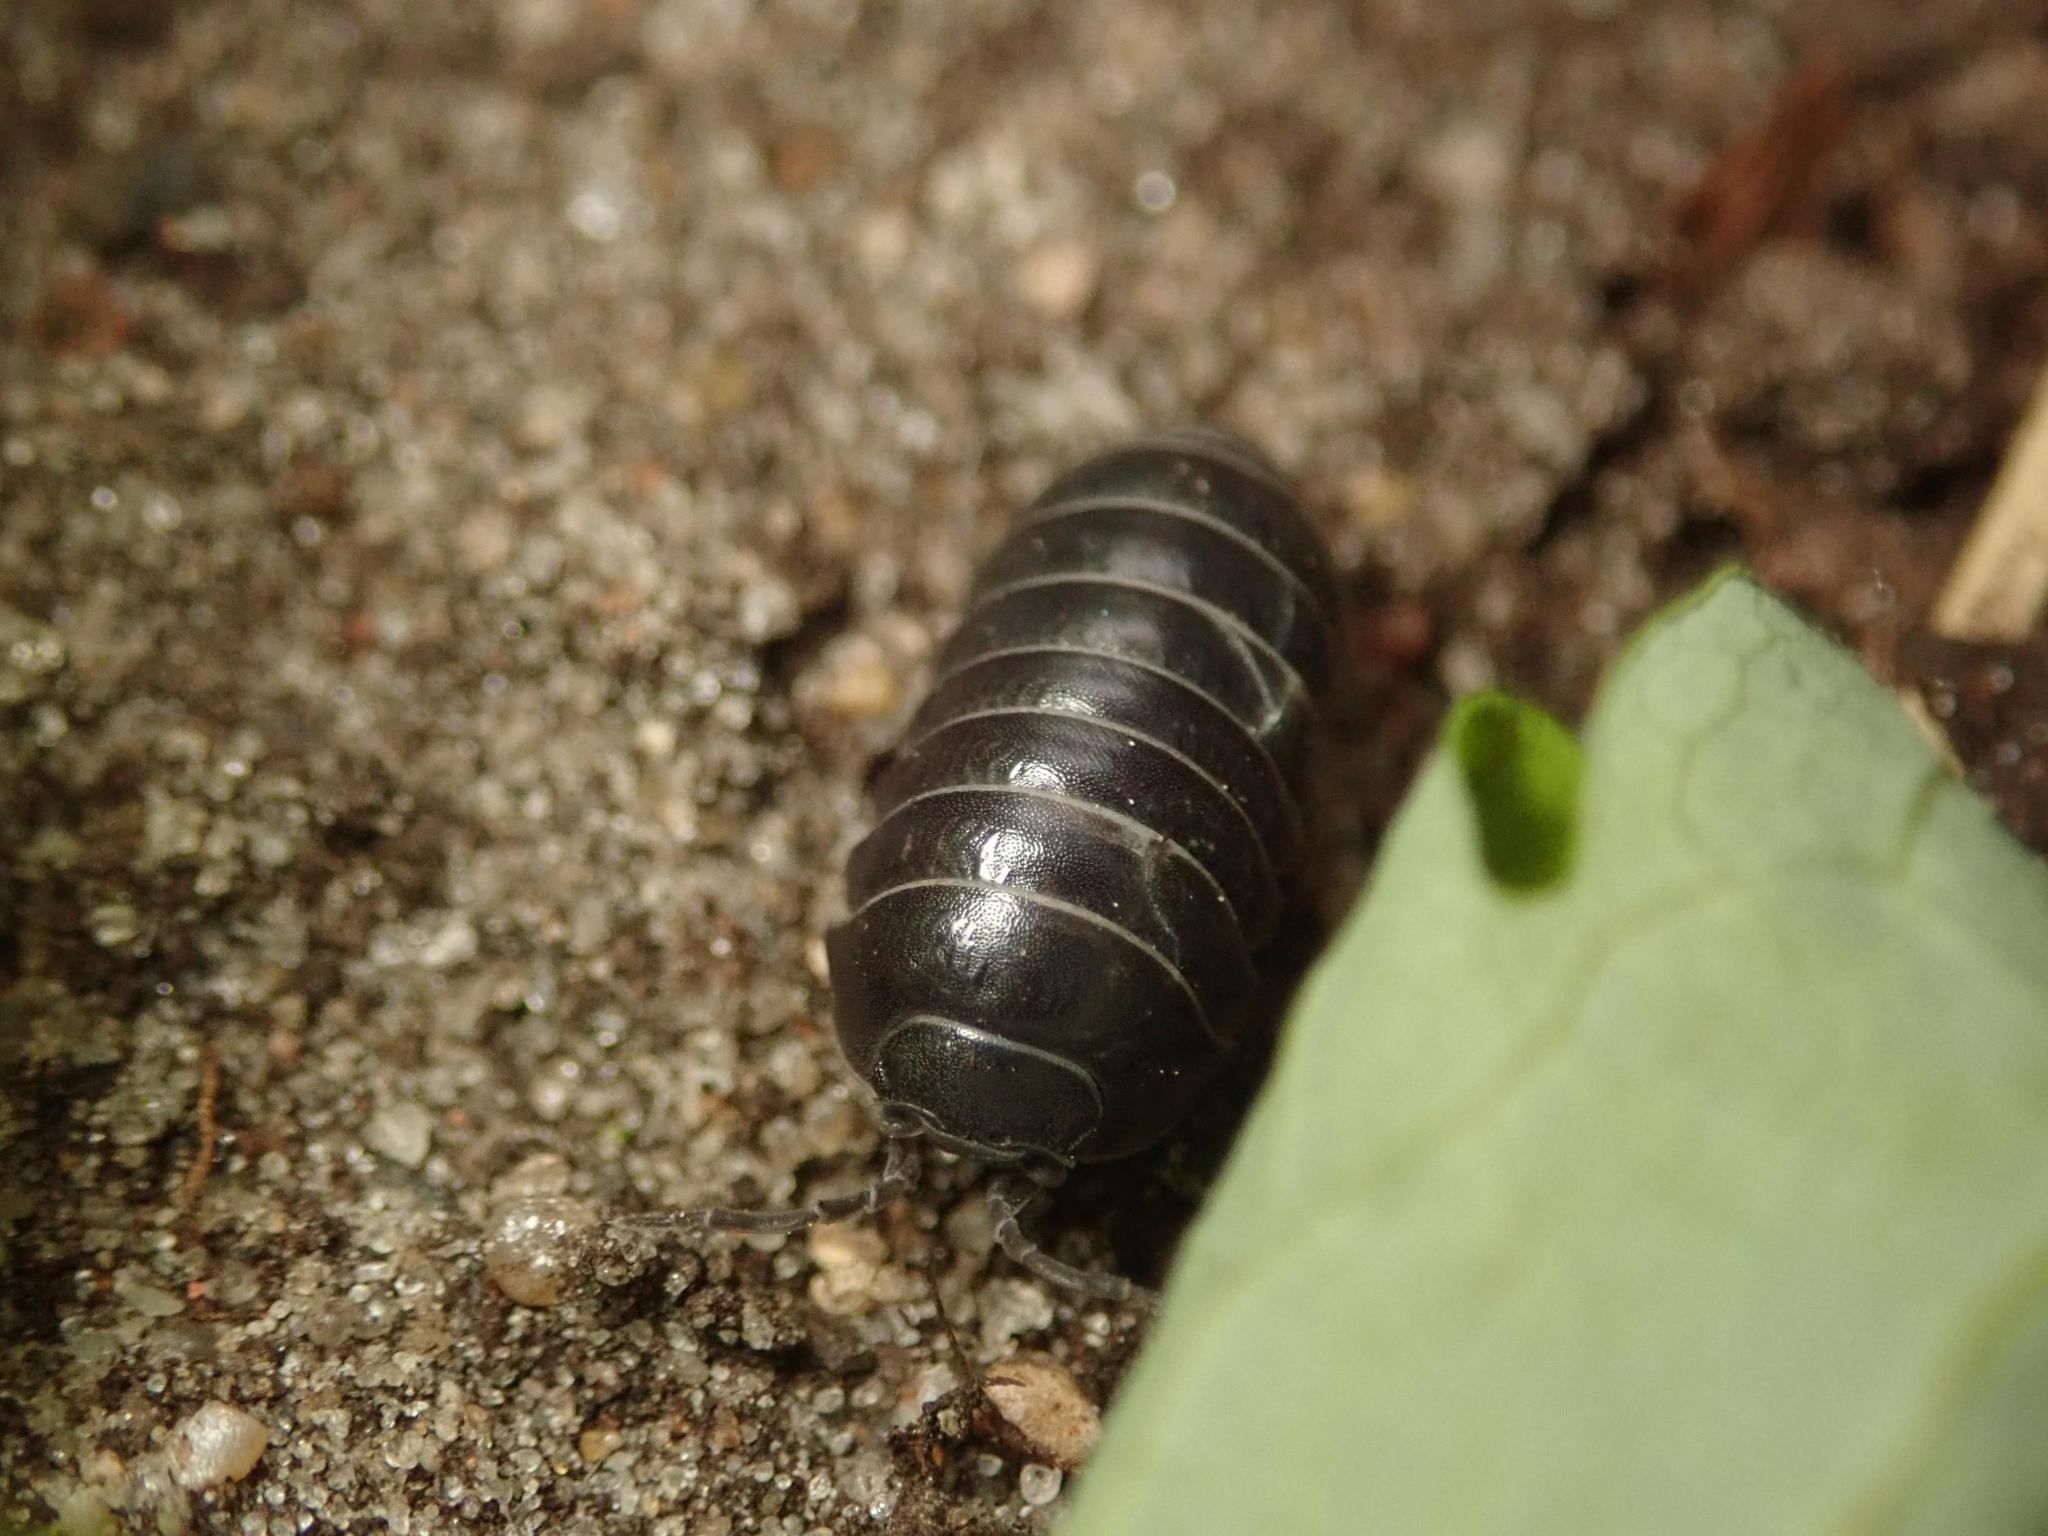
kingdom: Animalia
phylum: Arthropoda
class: Malacostraca
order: Isopoda
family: Armadillidiidae
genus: Armadillidium
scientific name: Armadillidium vulgare
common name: Common pill woodlouse
